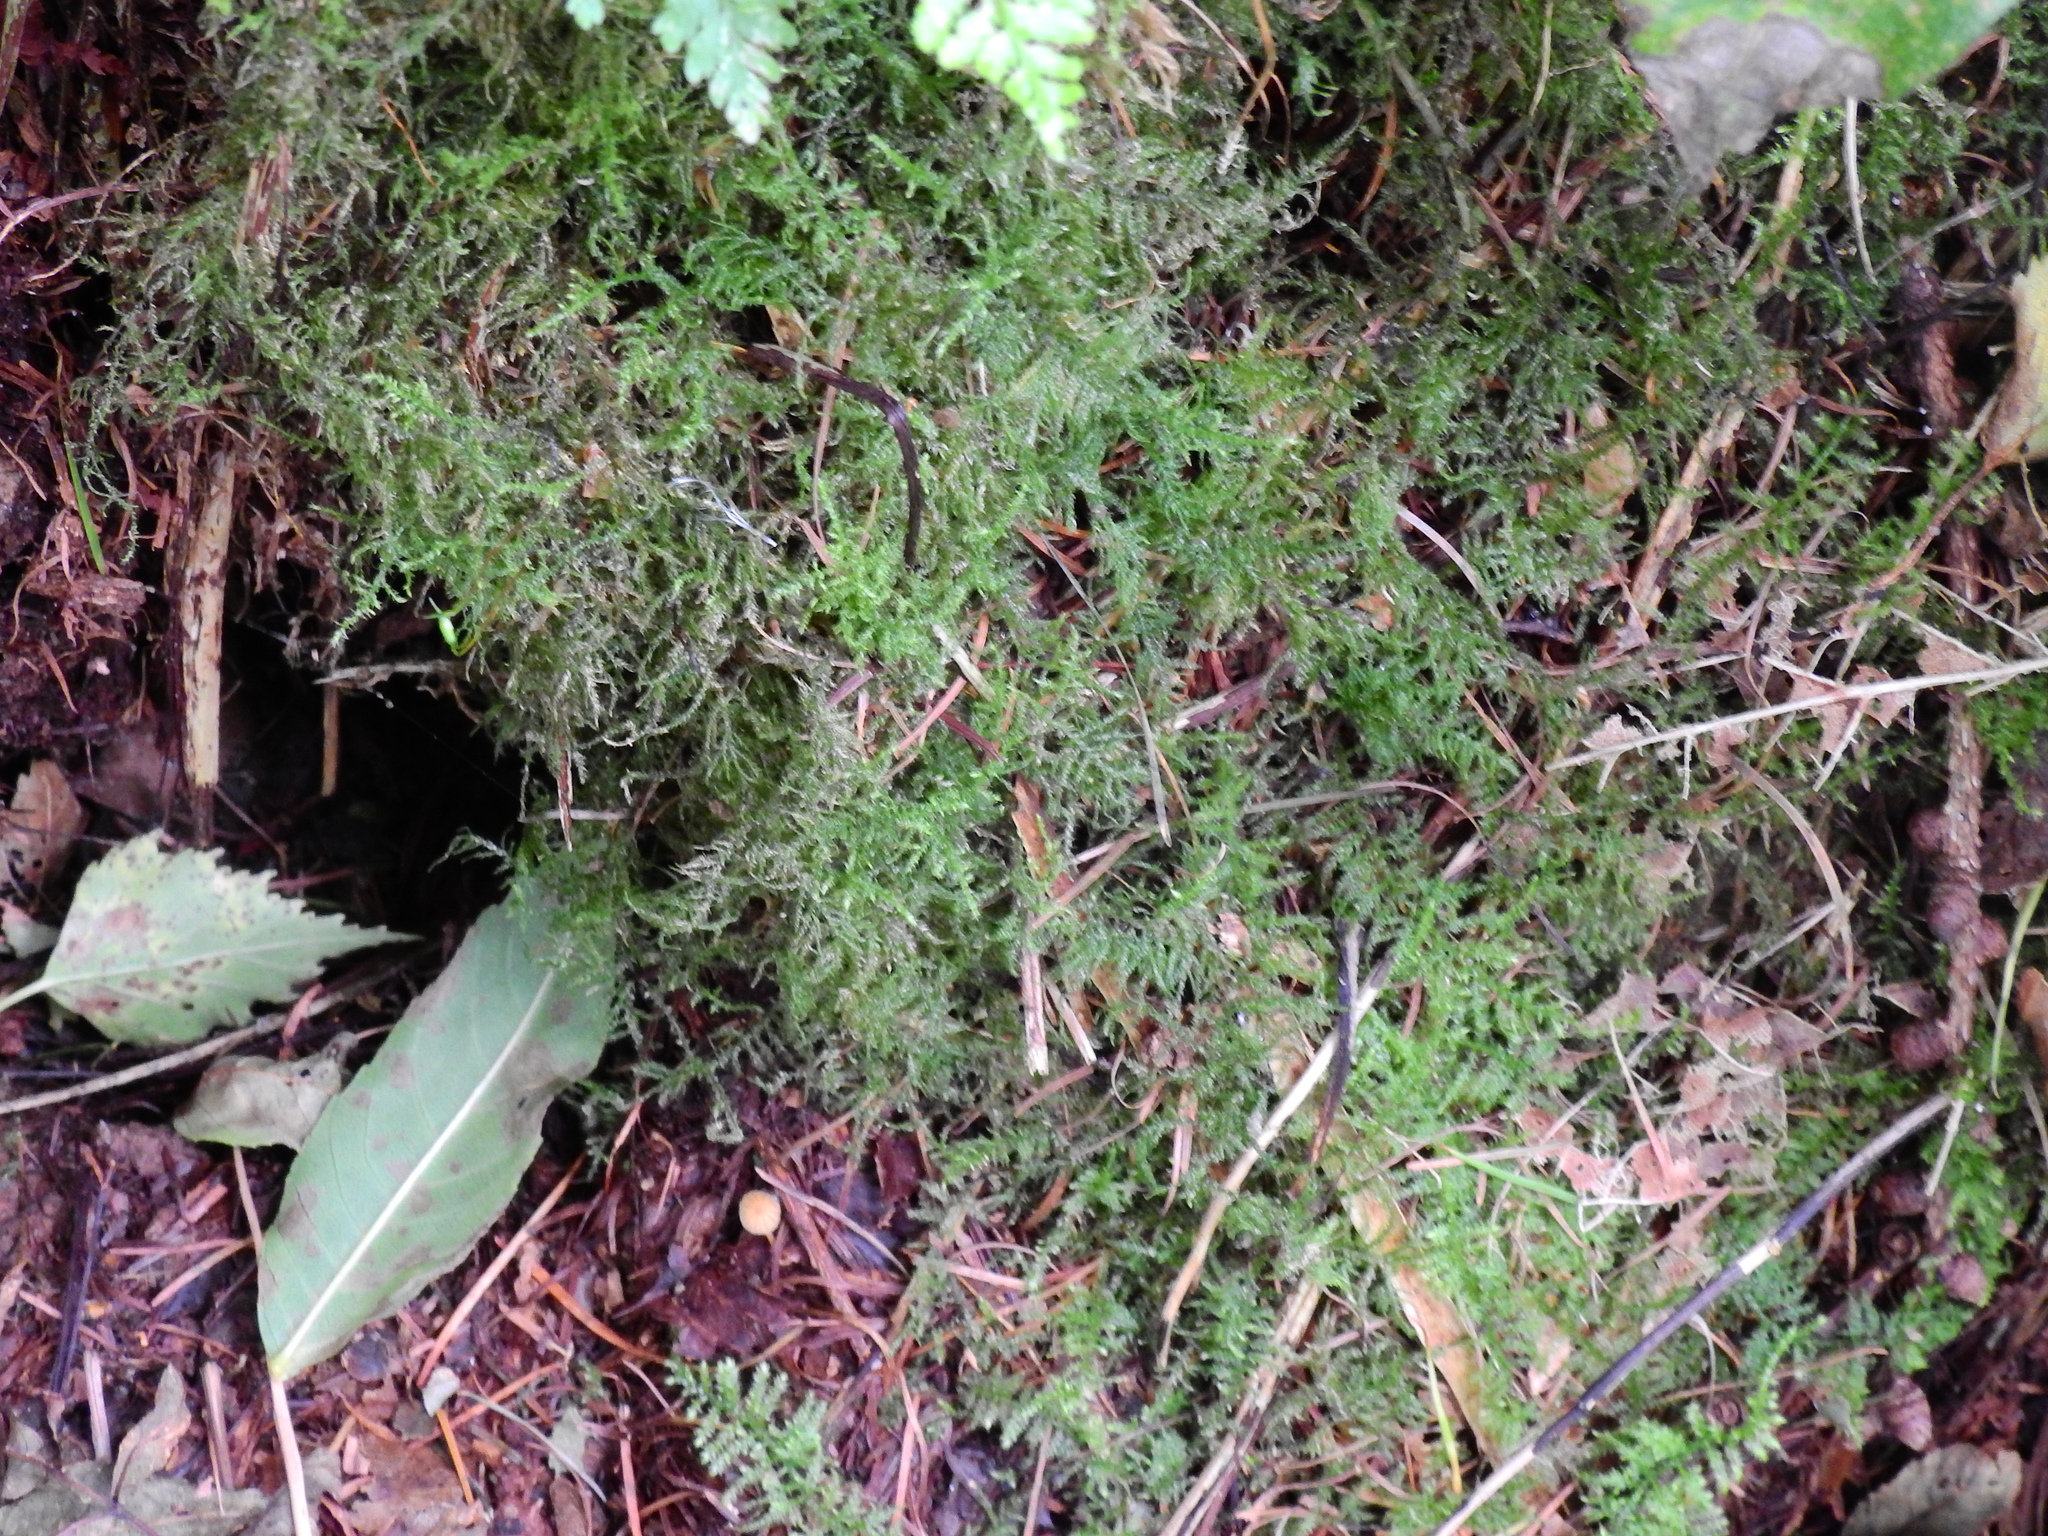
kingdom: Plantae
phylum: Bryophyta
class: Bryopsida
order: Hypnales
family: Brachytheciaceae
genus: Kindbergia
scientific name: Kindbergia praelonga
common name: Slender beaked moss
